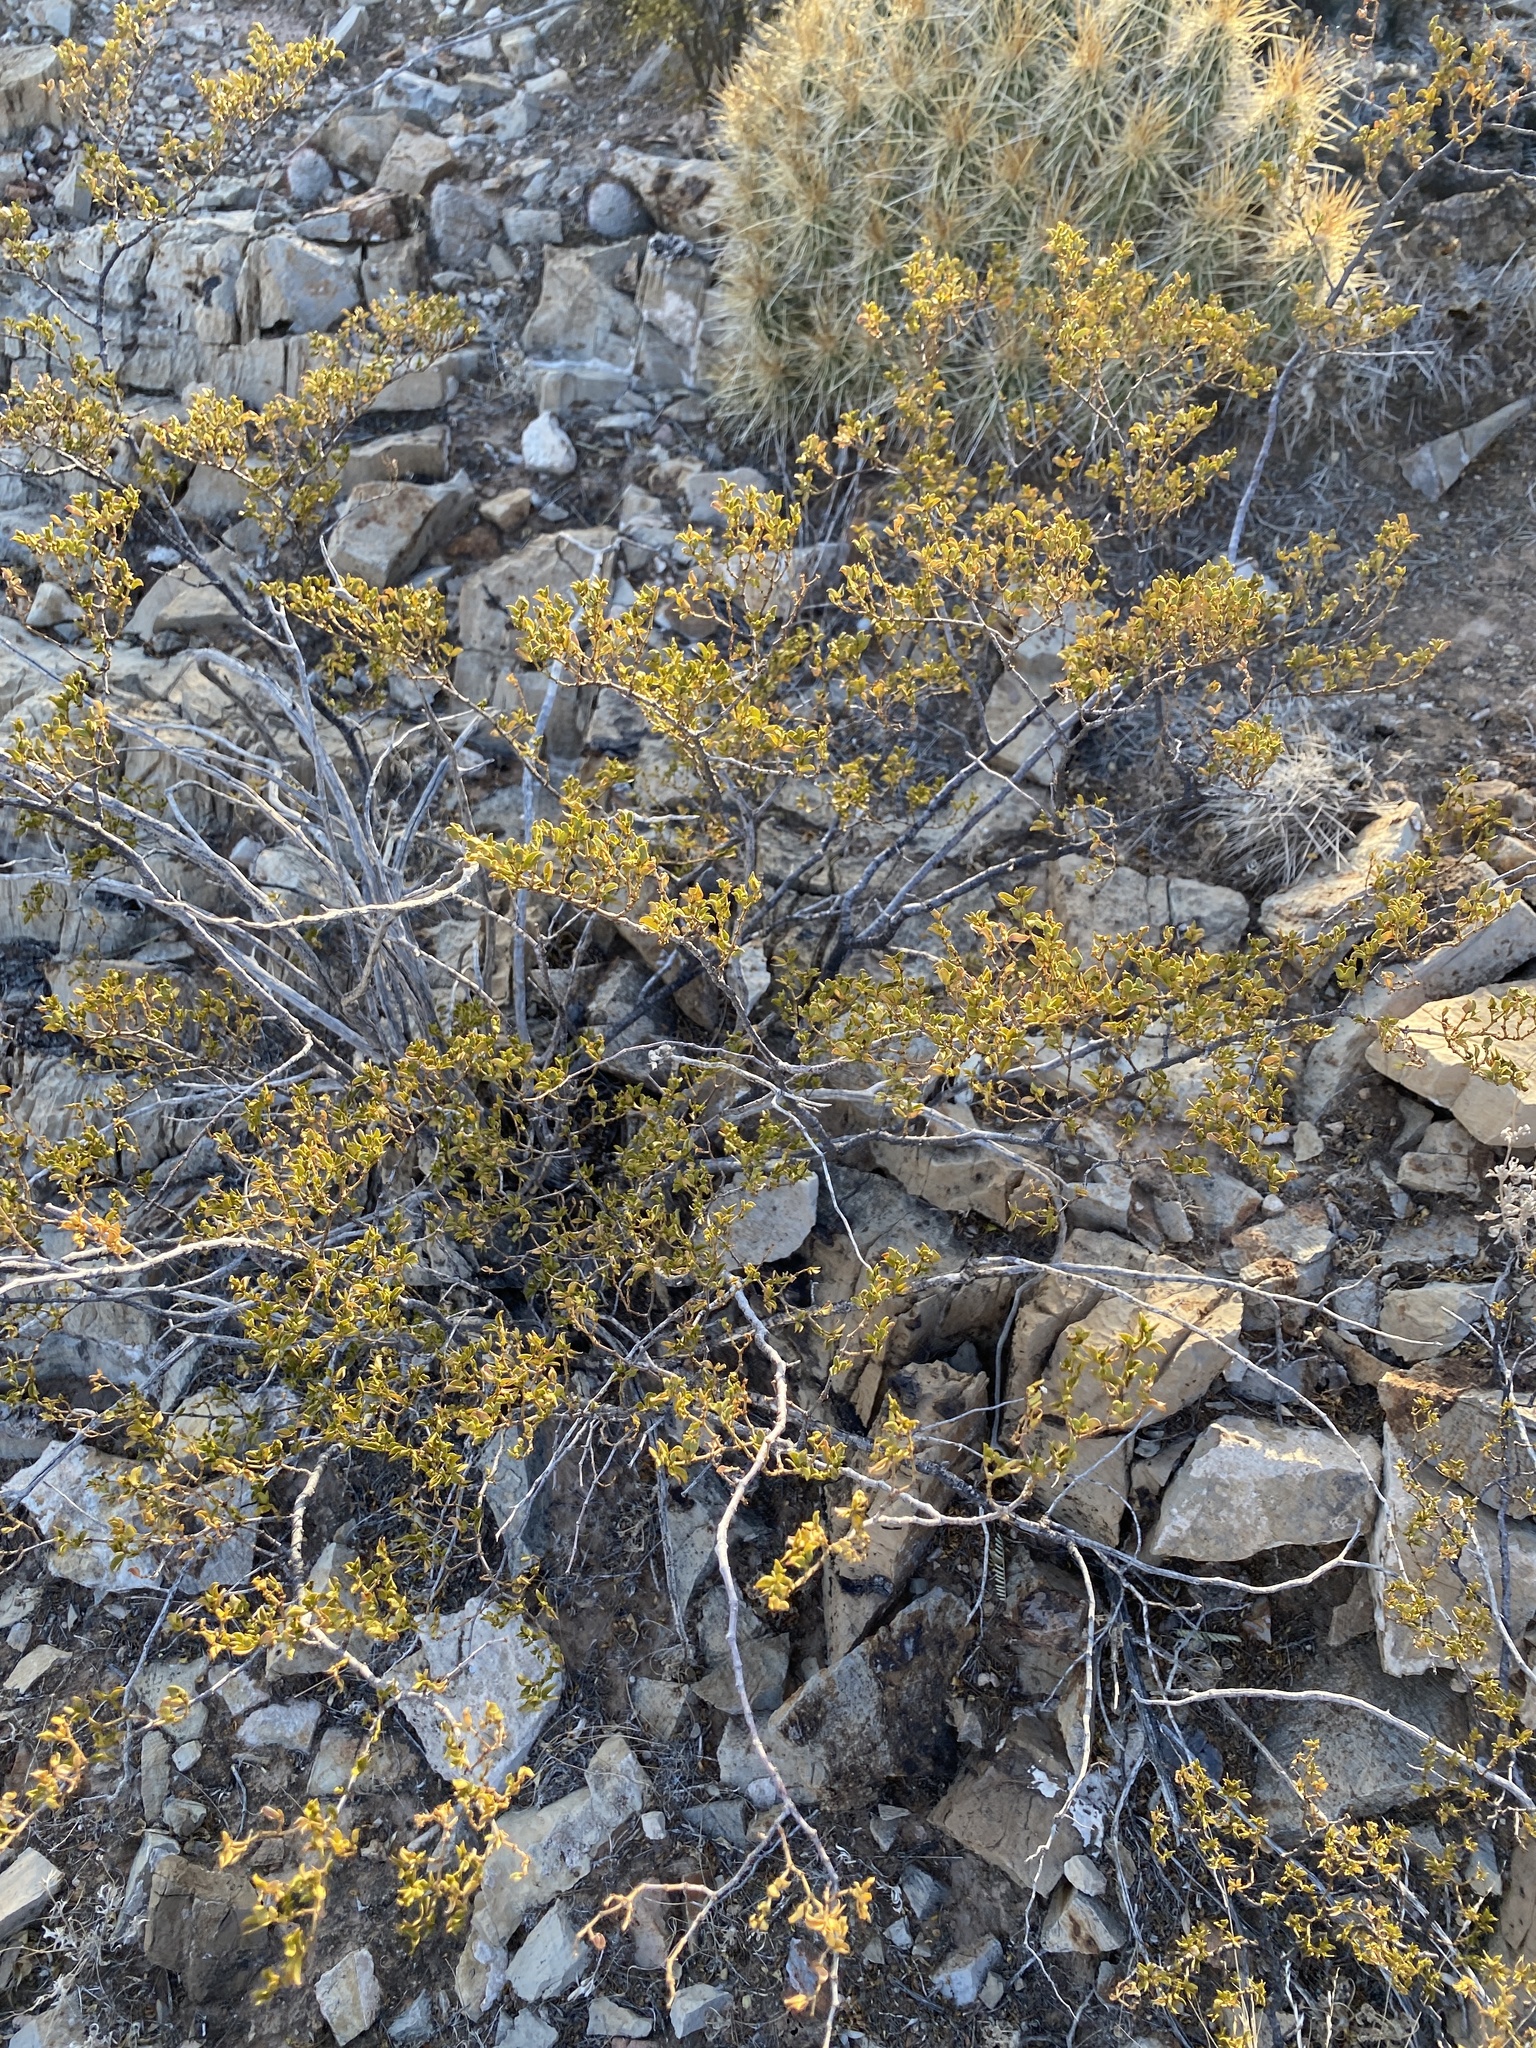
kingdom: Plantae
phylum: Tracheophyta
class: Magnoliopsida
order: Zygophyllales
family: Zygophyllaceae
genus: Larrea
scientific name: Larrea tridentata
